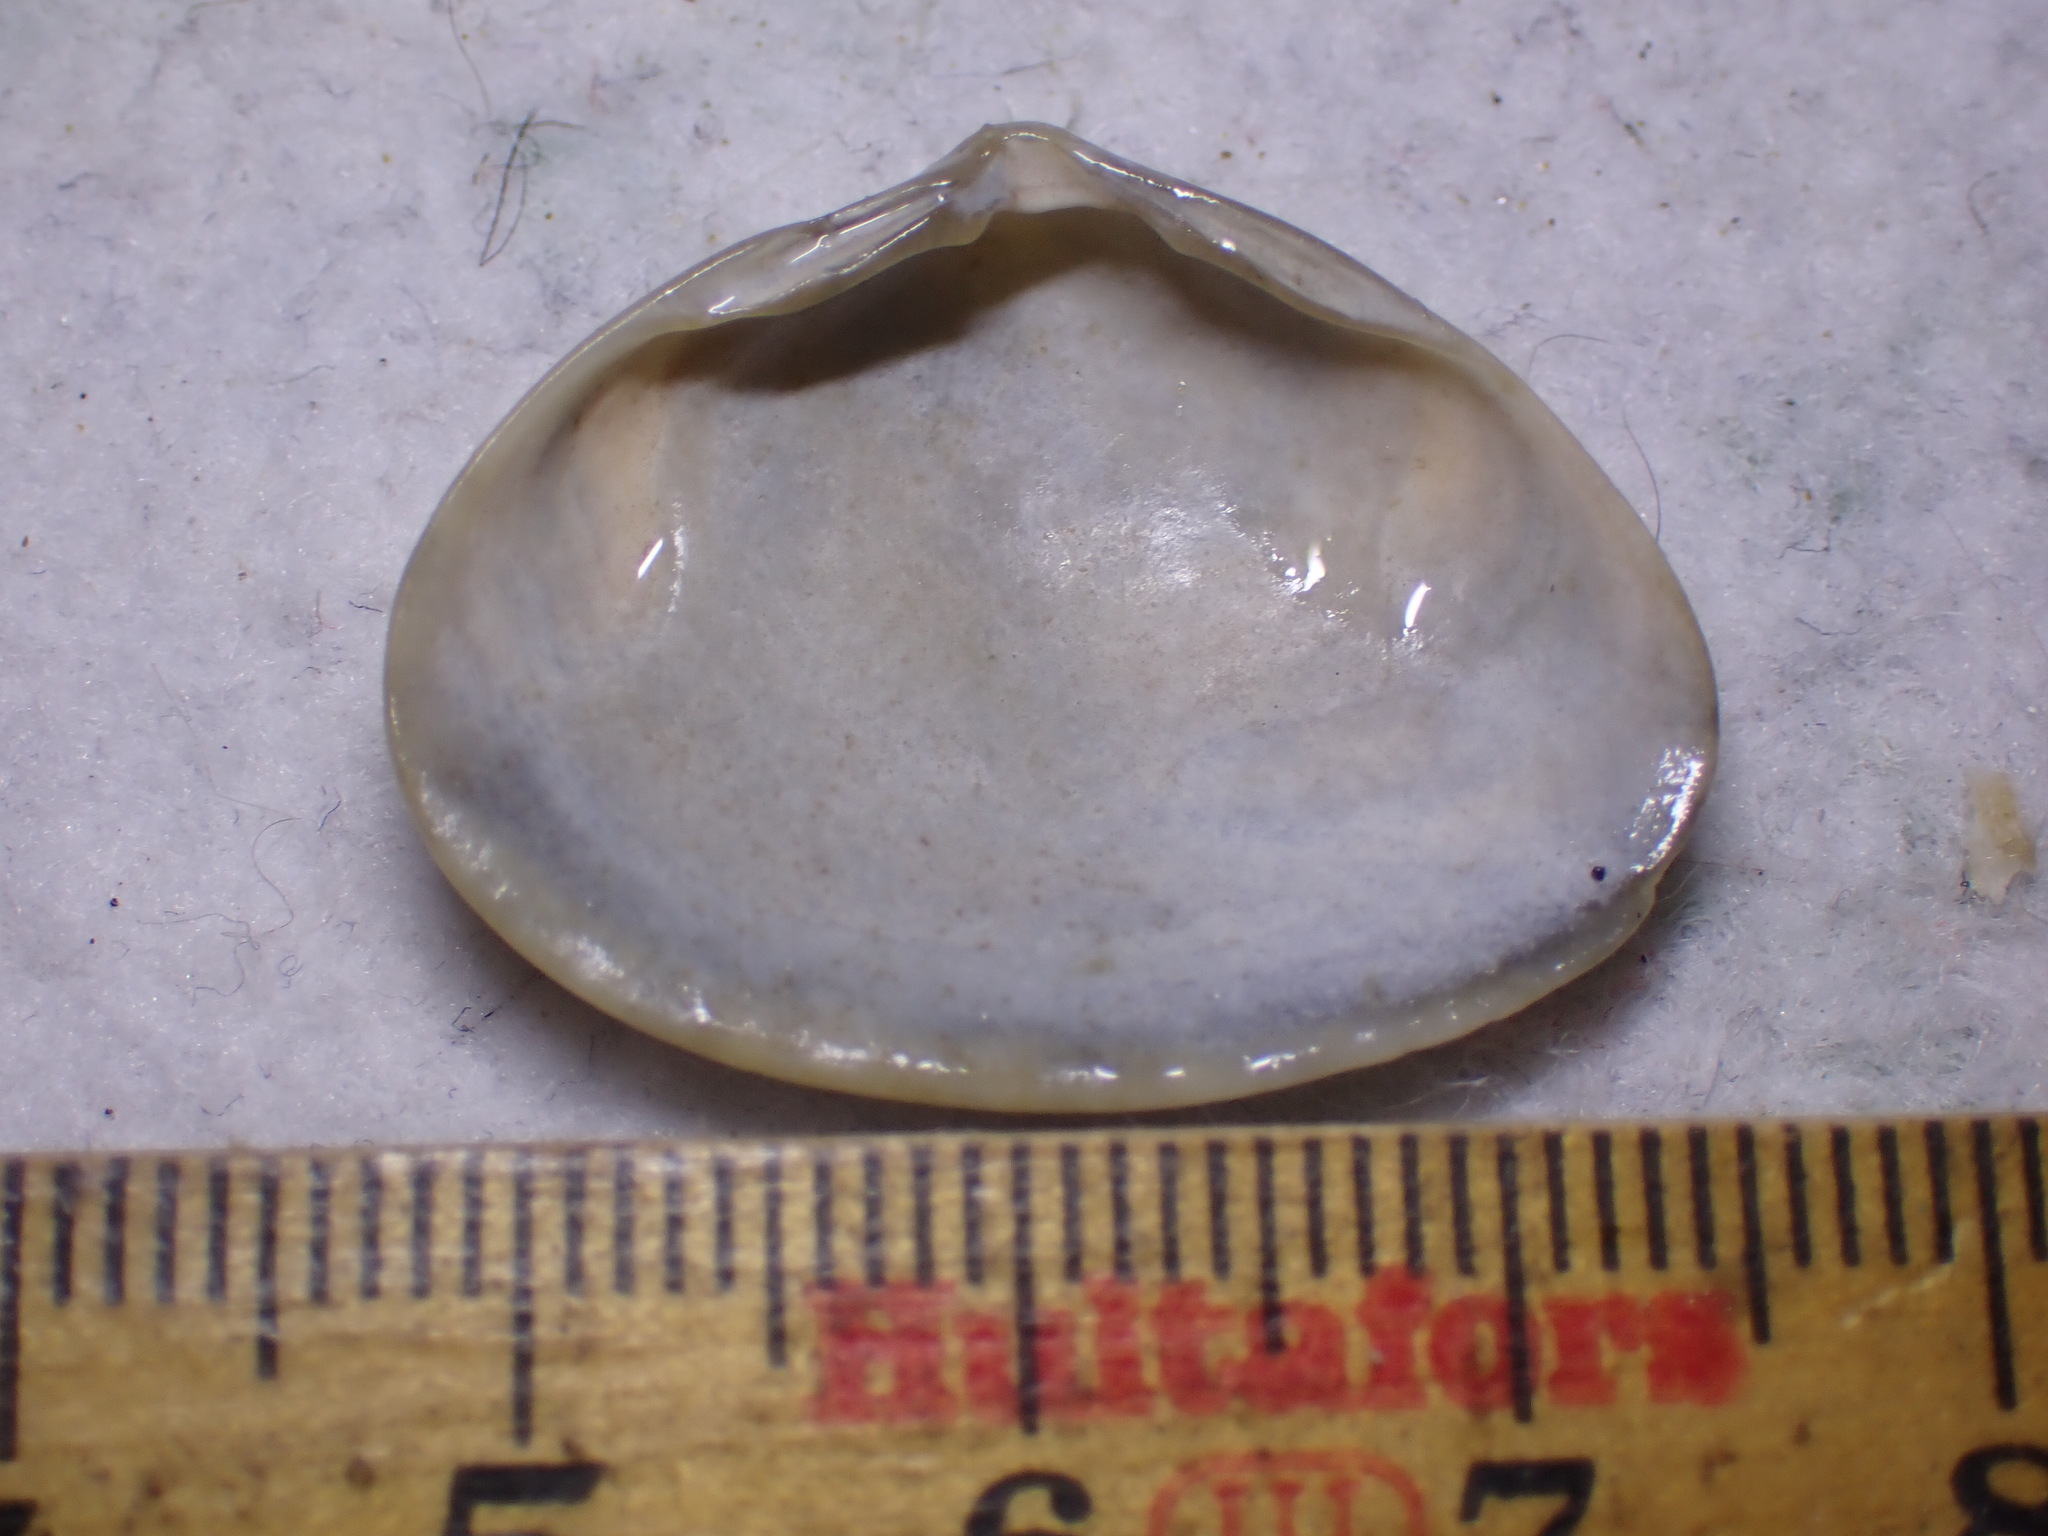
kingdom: Animalia
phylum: Mollusca
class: Bivalvia
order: Venerida
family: Mactridae
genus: Spisula
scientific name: Spisula solida
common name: Thick trough shell
